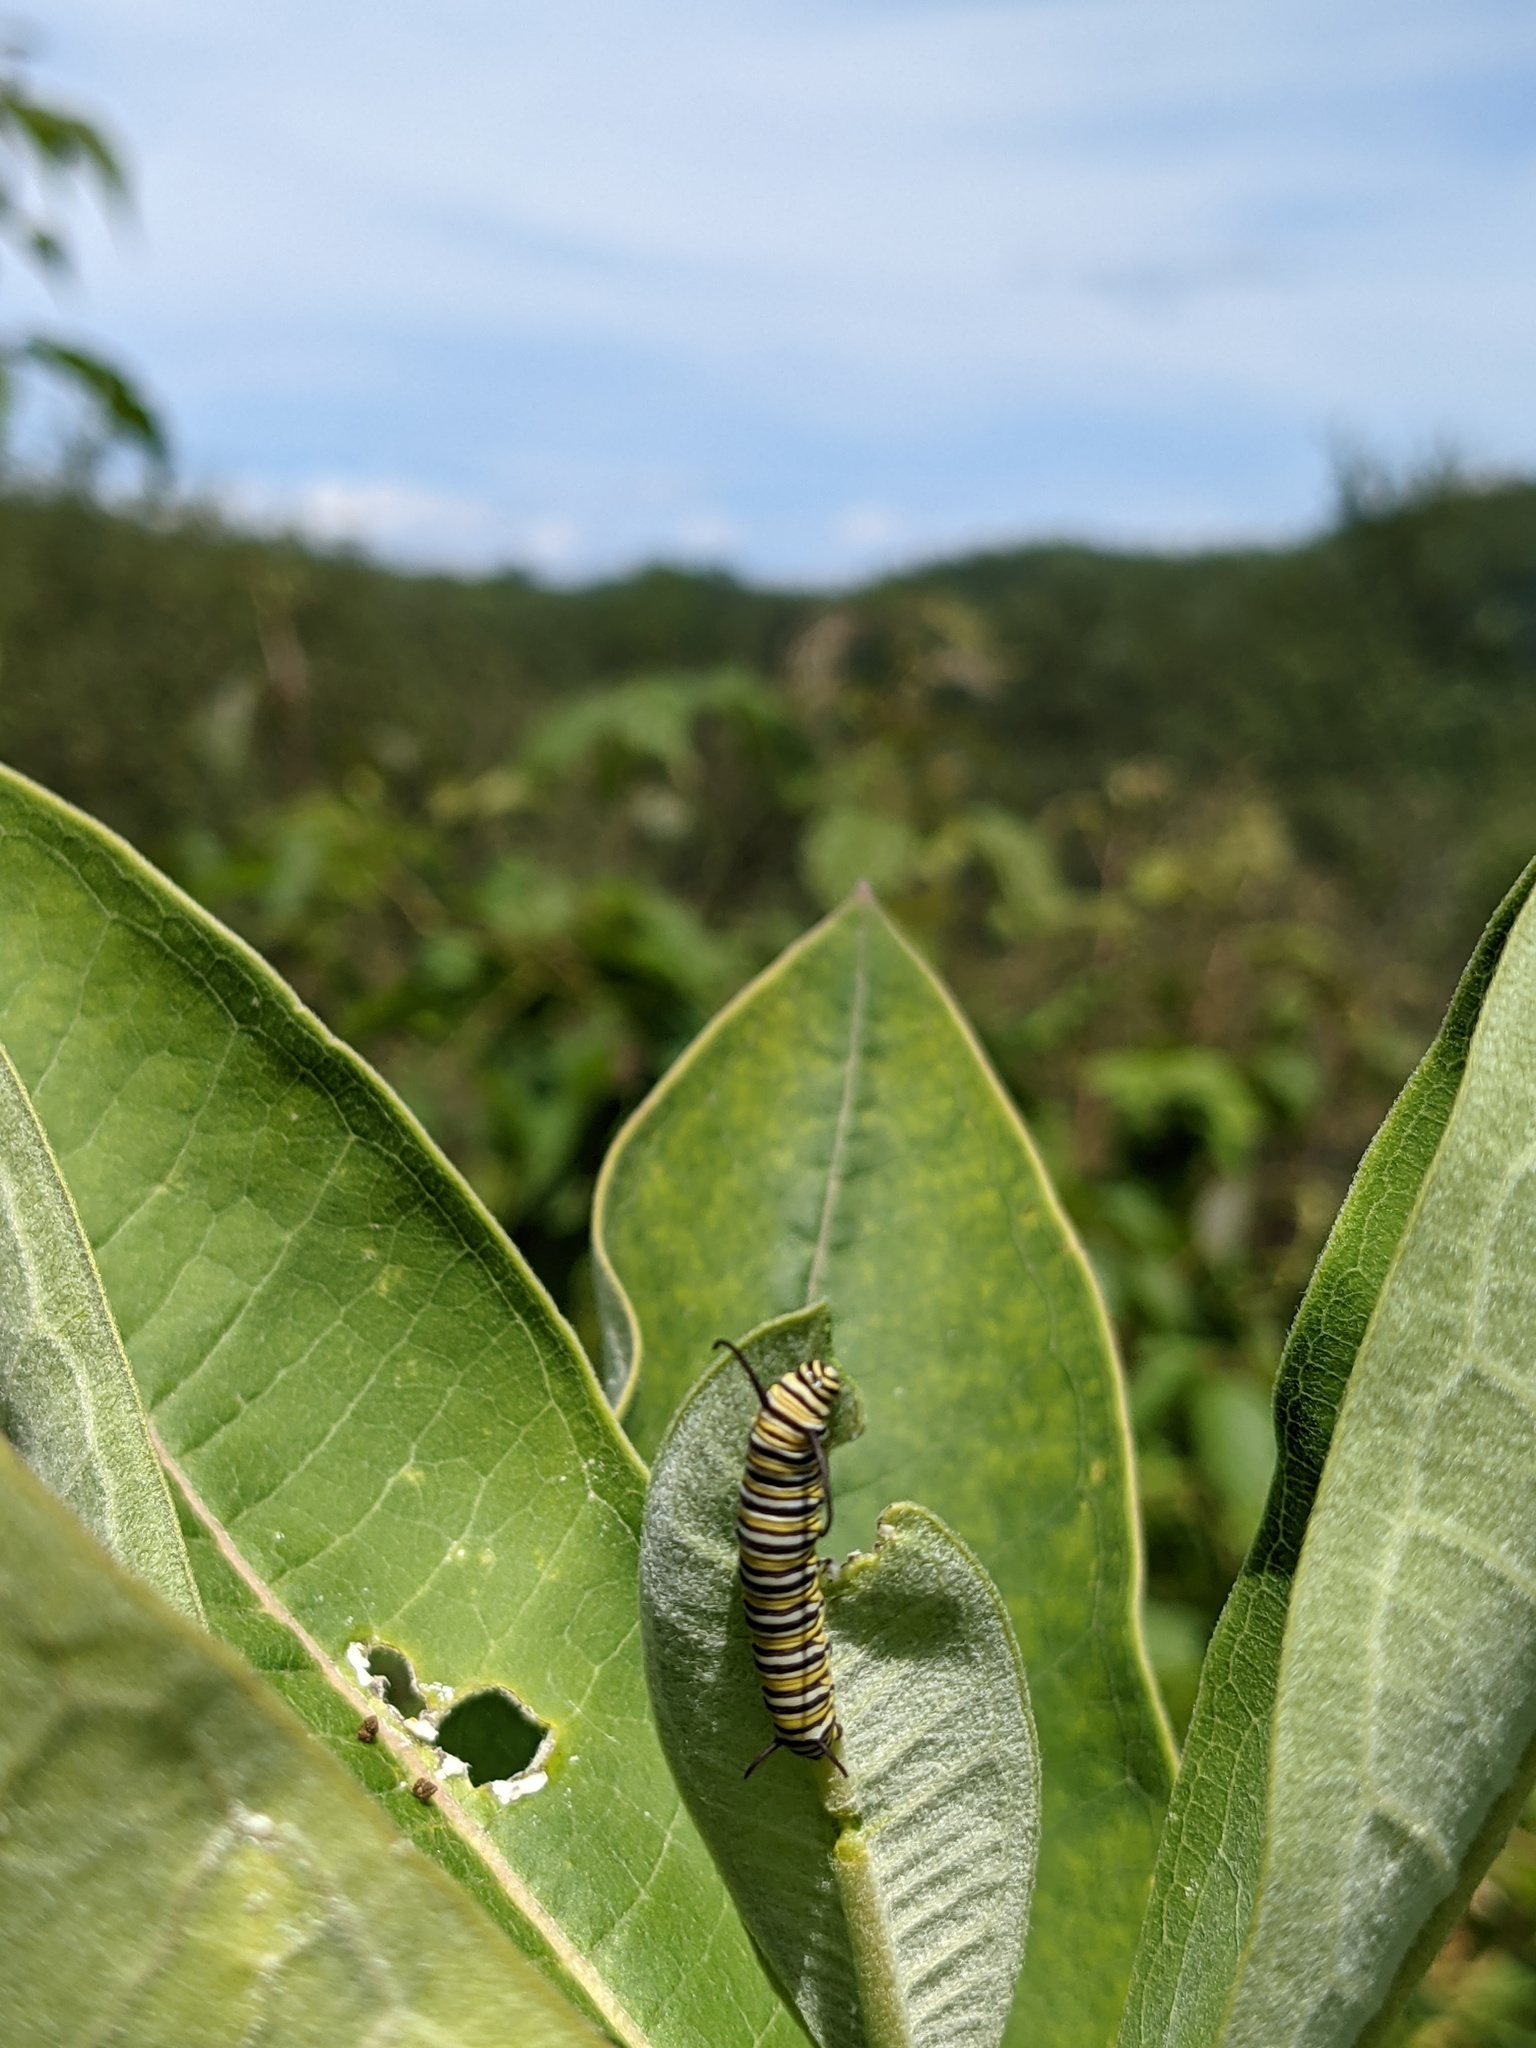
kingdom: Animalia
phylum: Arthropoda
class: Insecta
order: Lepidoptera
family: Nymphalidae
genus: Danaus
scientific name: Danaus plexippus
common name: Monarch
